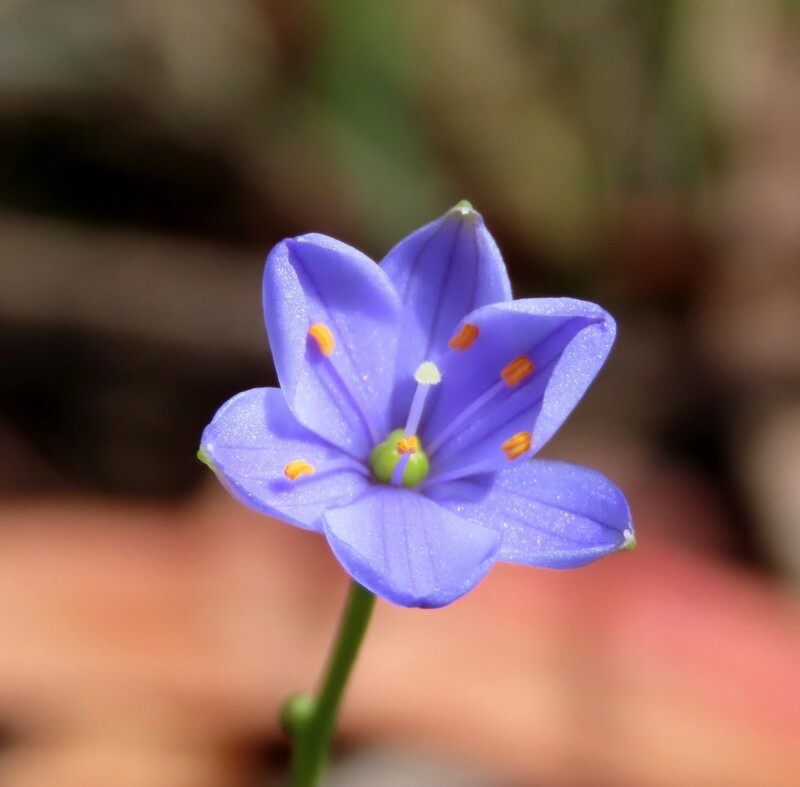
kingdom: Plantae
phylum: Tracheophyta
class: Liliopsida
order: Asparagales
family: Asphodelaceae
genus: Chamaescilla
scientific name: Chamaescilla corymbosa
